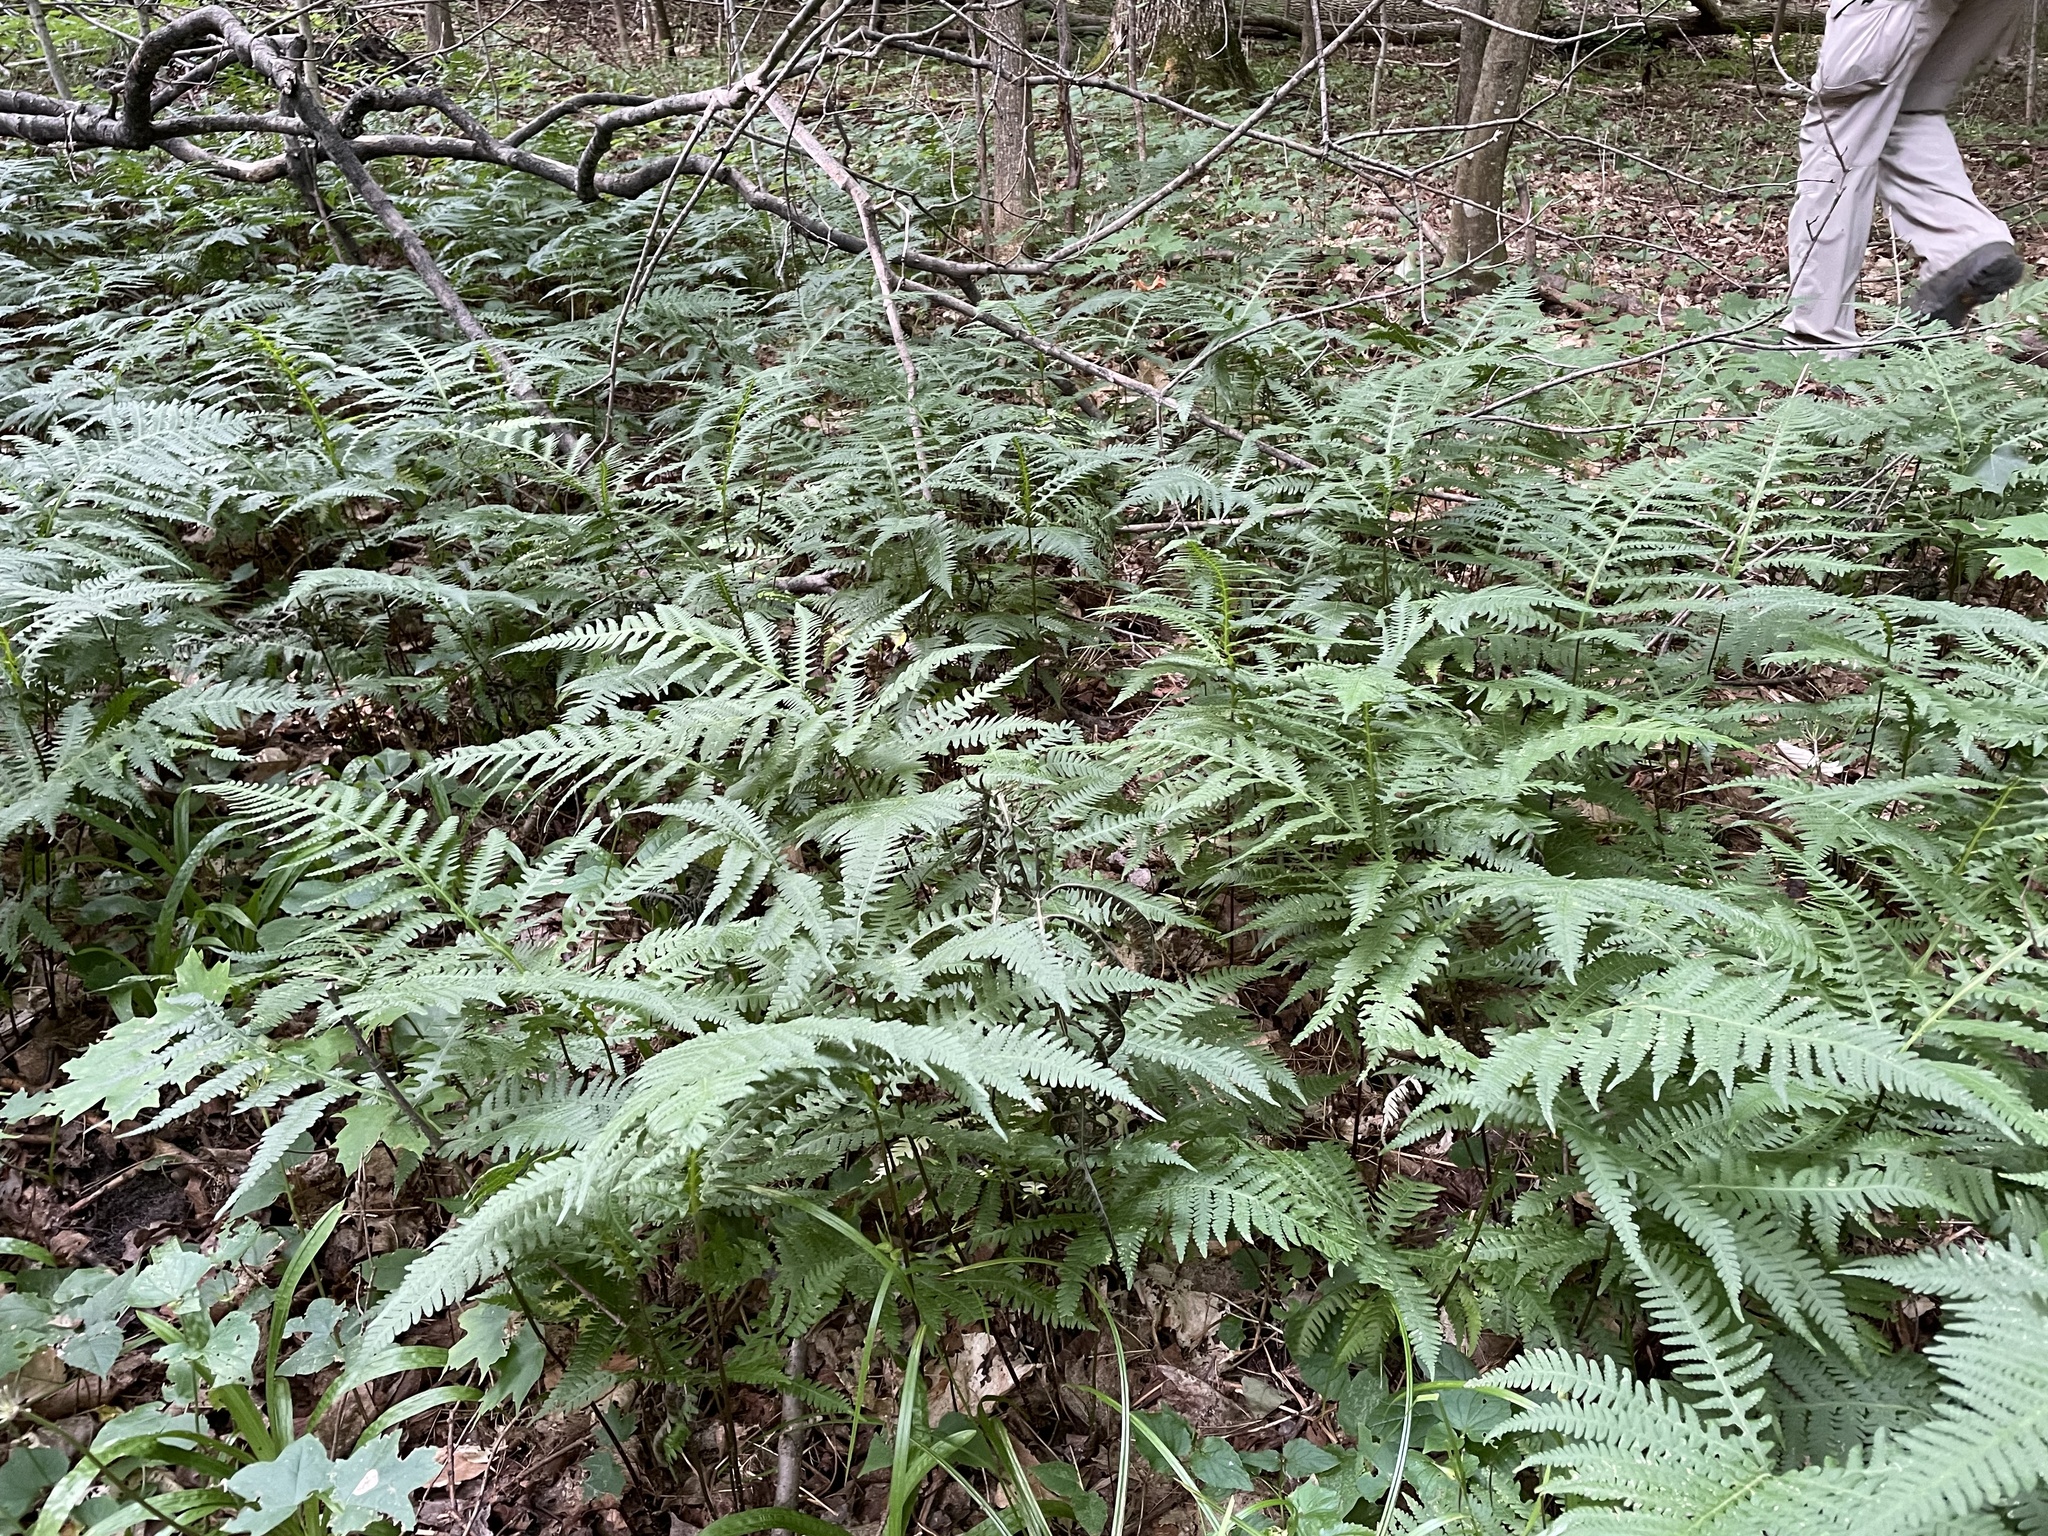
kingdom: Plantae
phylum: Tracheophyta
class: Polypodiopsida
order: Polypodiales
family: Thelypteridaceae
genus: Phegopteris
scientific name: Phegopteris hexagonoptera
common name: Broad beech fern
